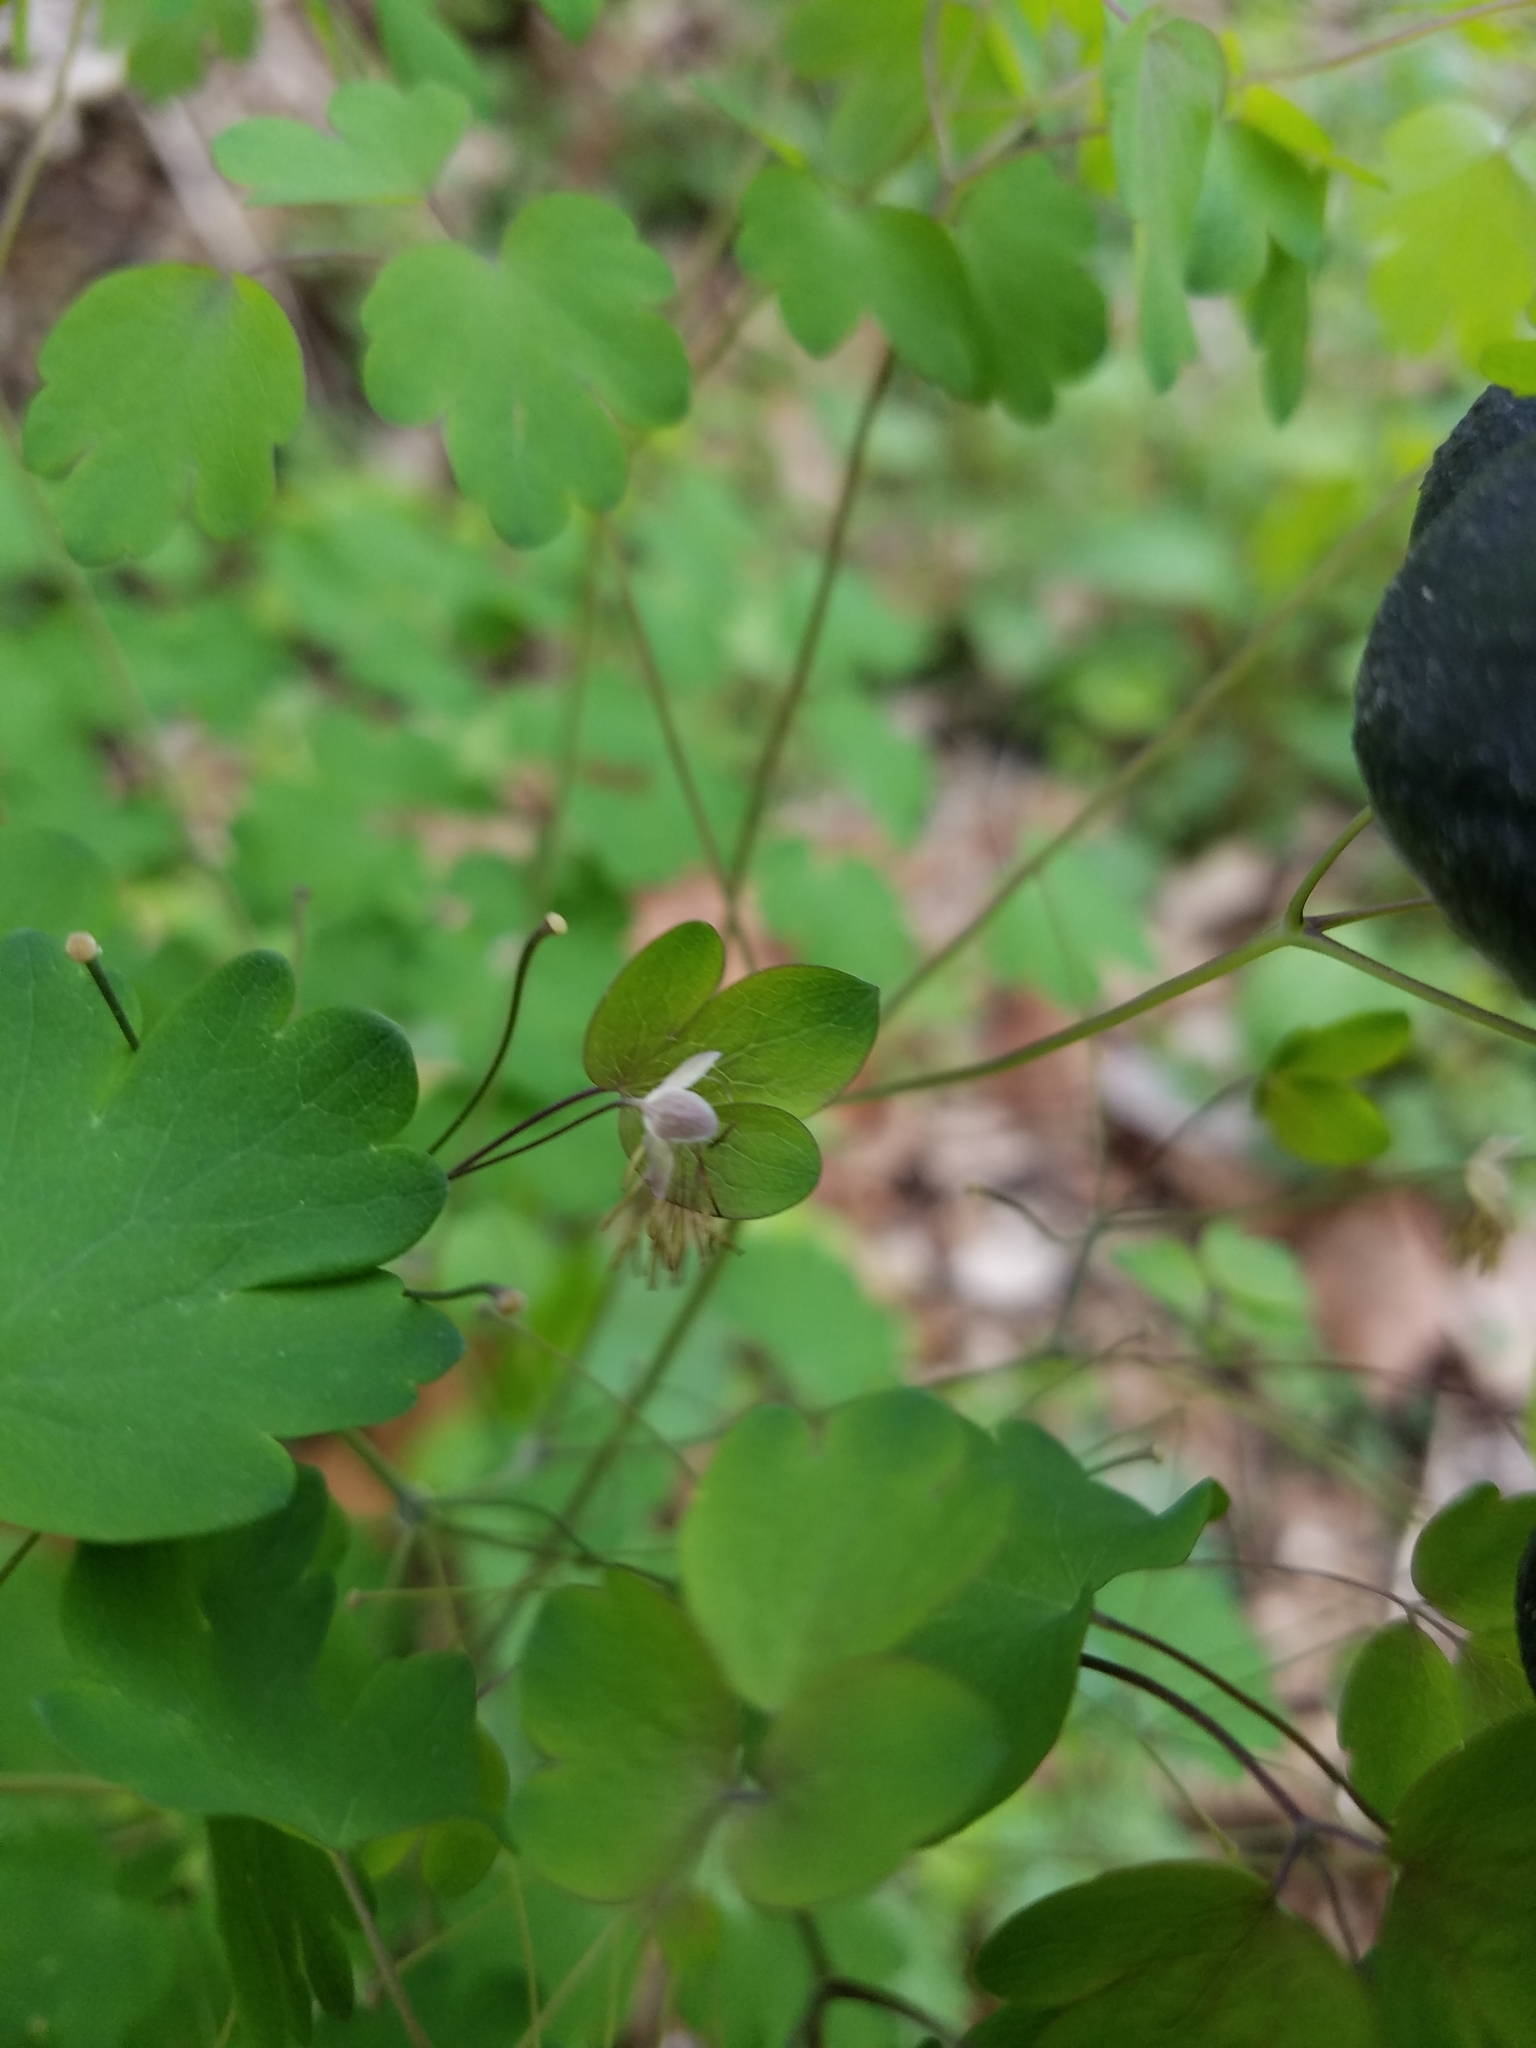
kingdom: Plantae
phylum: Tracheophyta
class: Magnoliopsida
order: Ranunculales
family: Ranunculaceae
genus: Thalictrum
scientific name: Thalictrum dioicum
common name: Early meadow-rue
